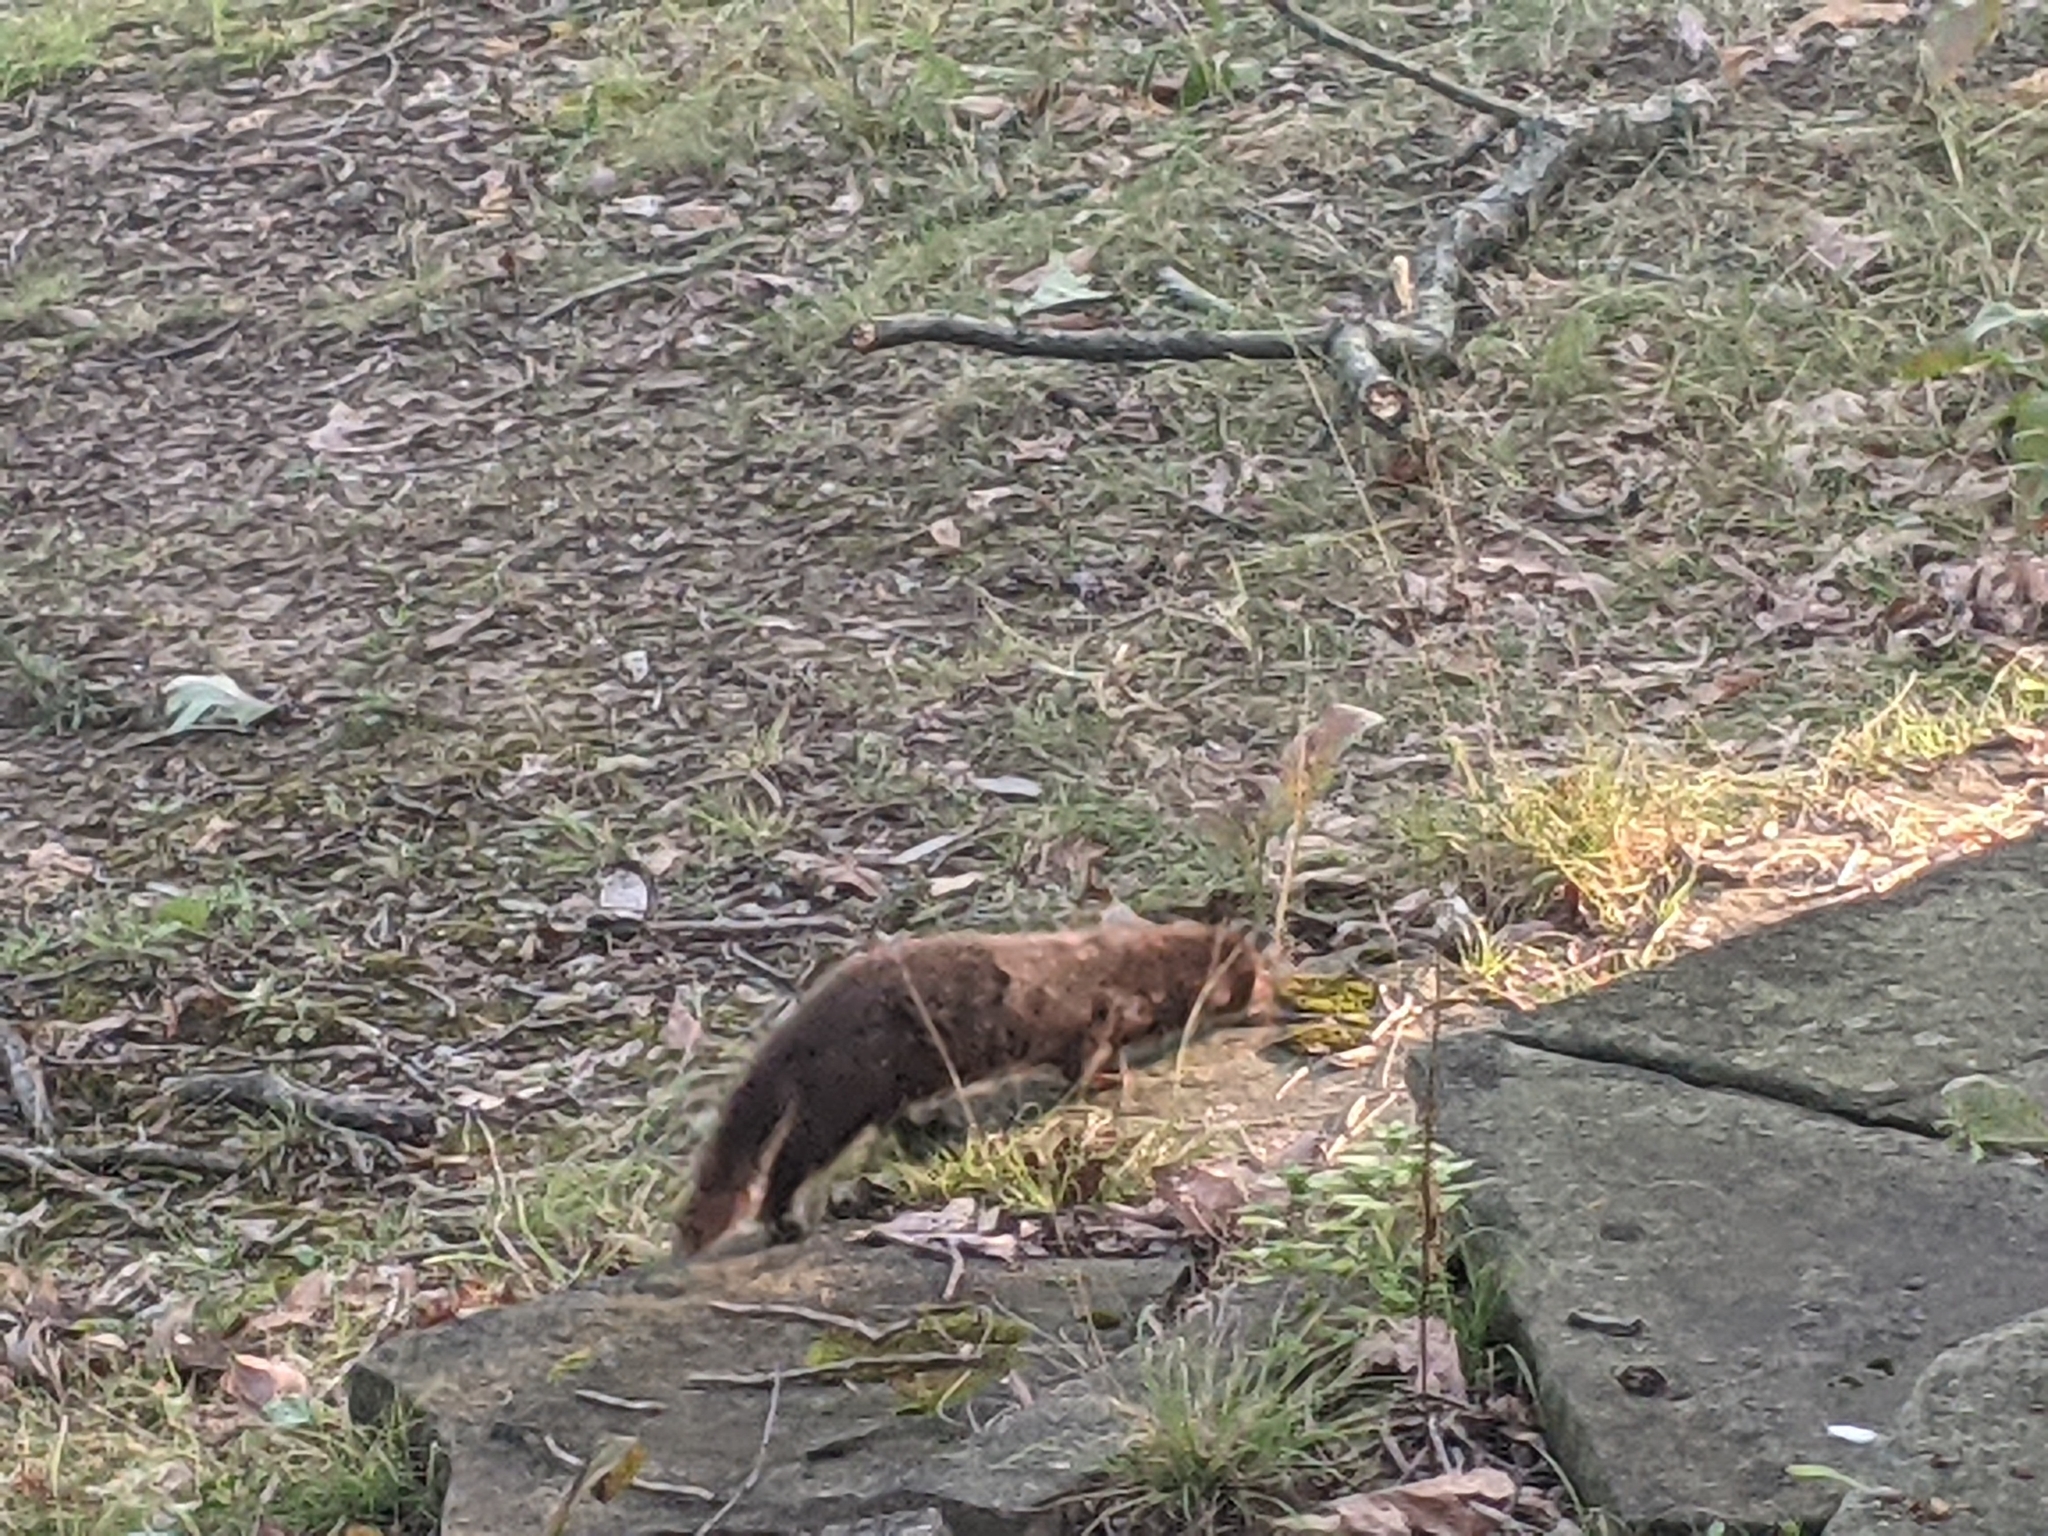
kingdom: Animalia
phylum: Chordata
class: Mammalia
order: Carnivora
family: Mustelidae
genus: Mustela
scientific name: Mustela
